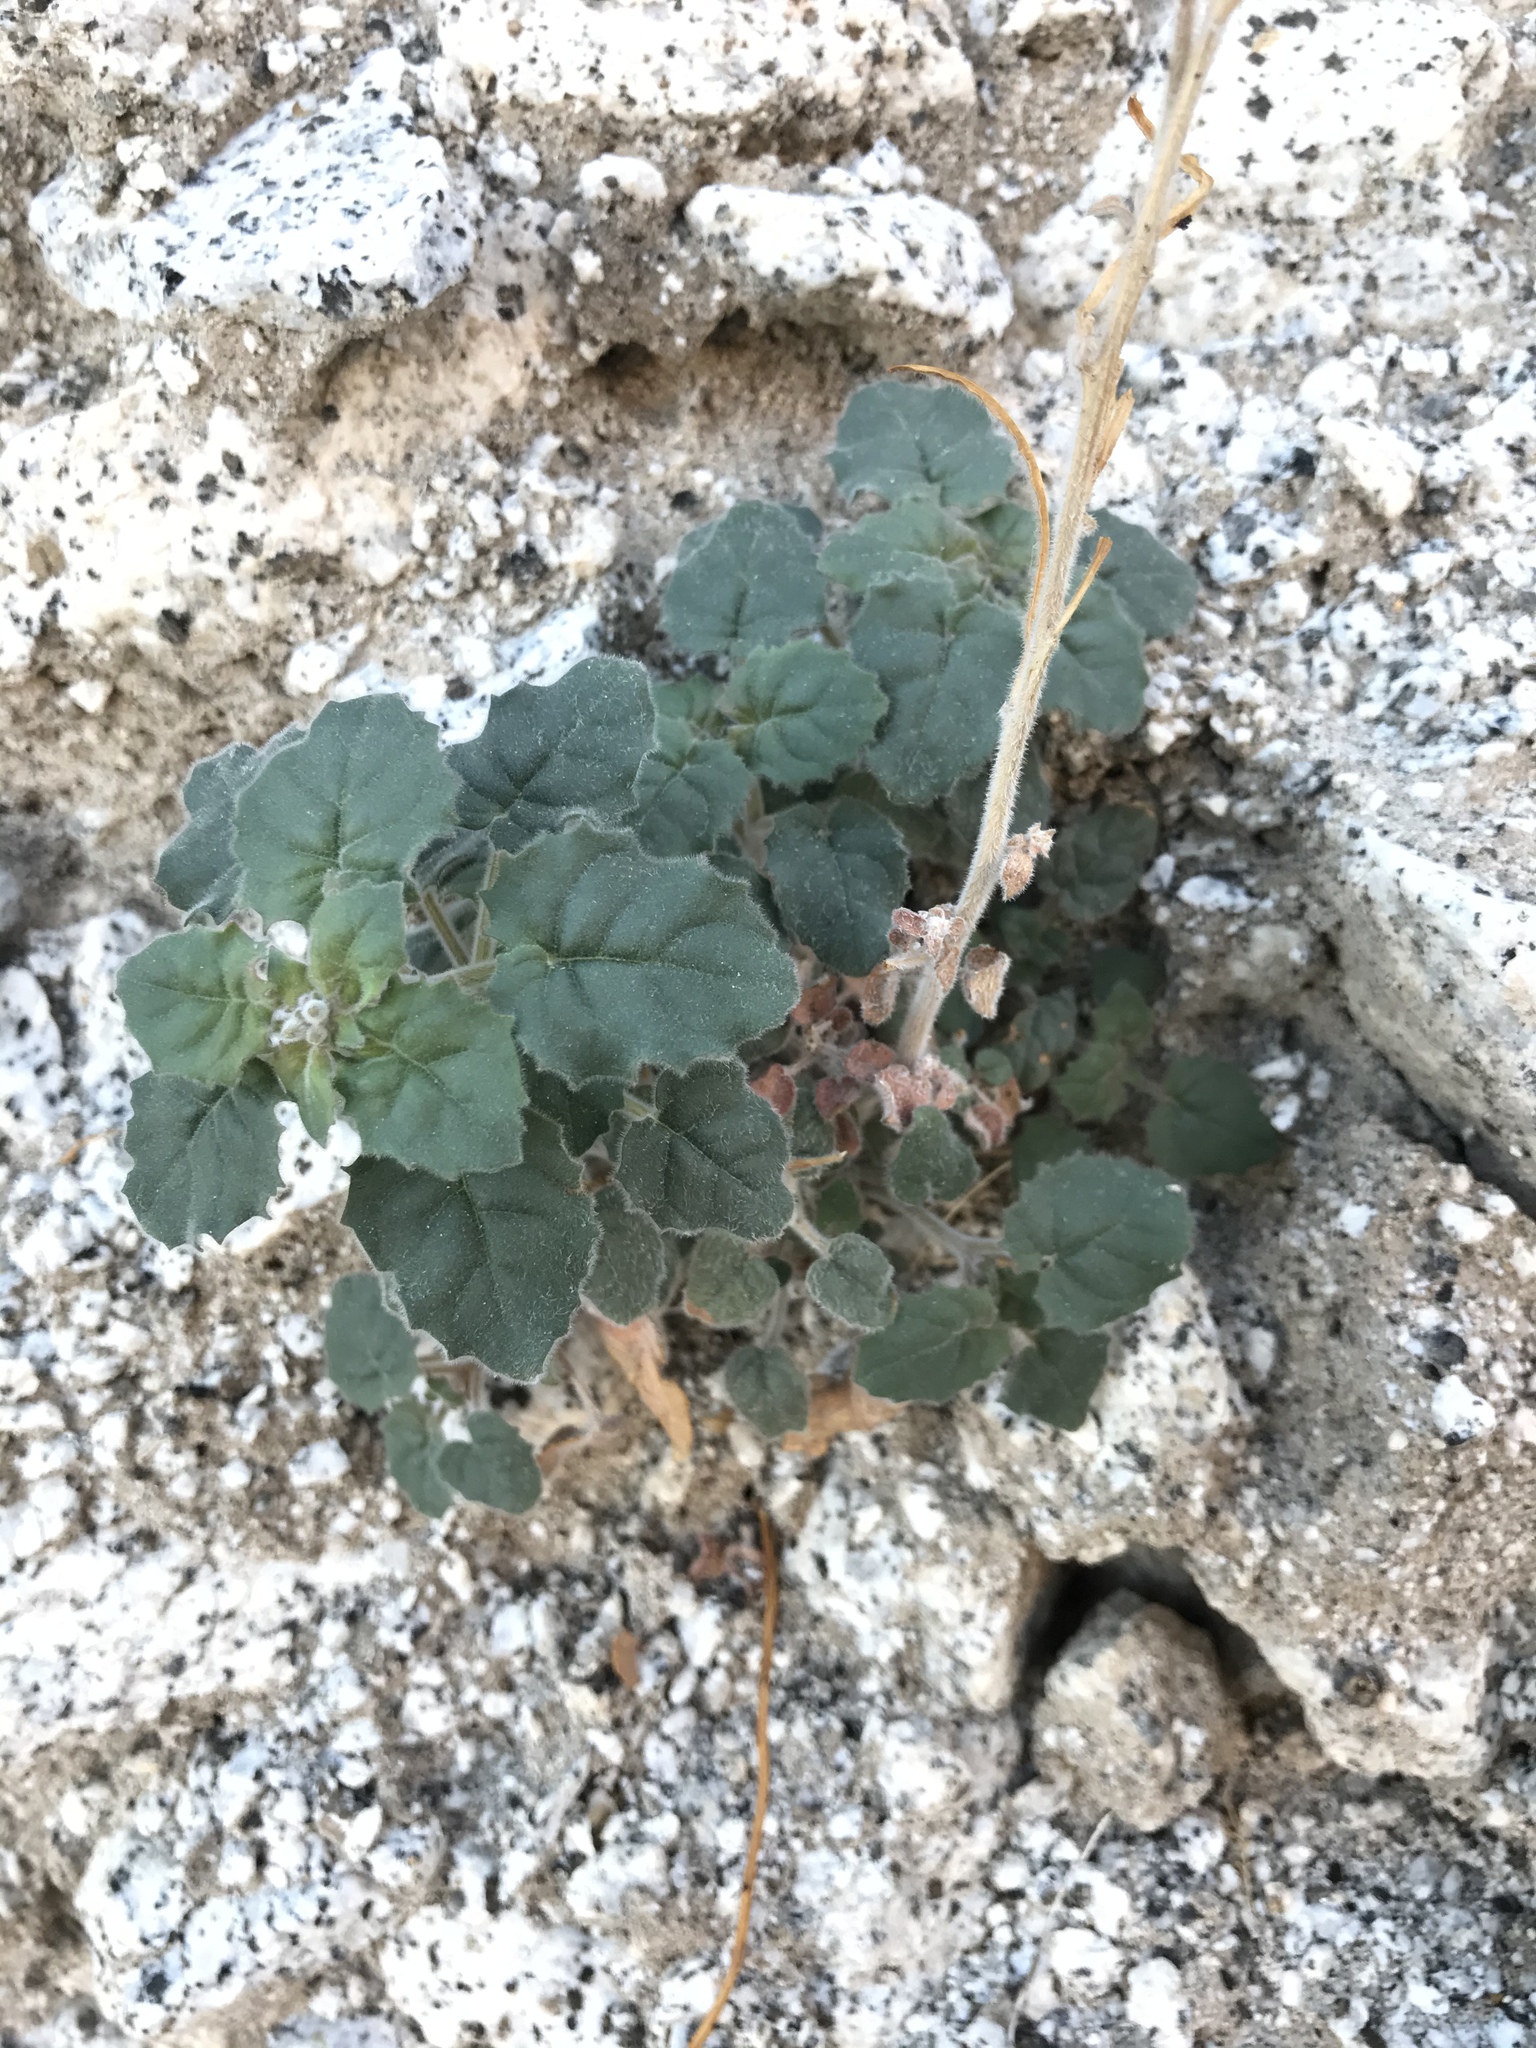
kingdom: Plantae
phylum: Tracheophyta
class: Magnoliopsida
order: Myrtales
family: Onagraceae
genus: Chylismia
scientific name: Chylismia cardiophylla
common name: Heartleaf suncup
